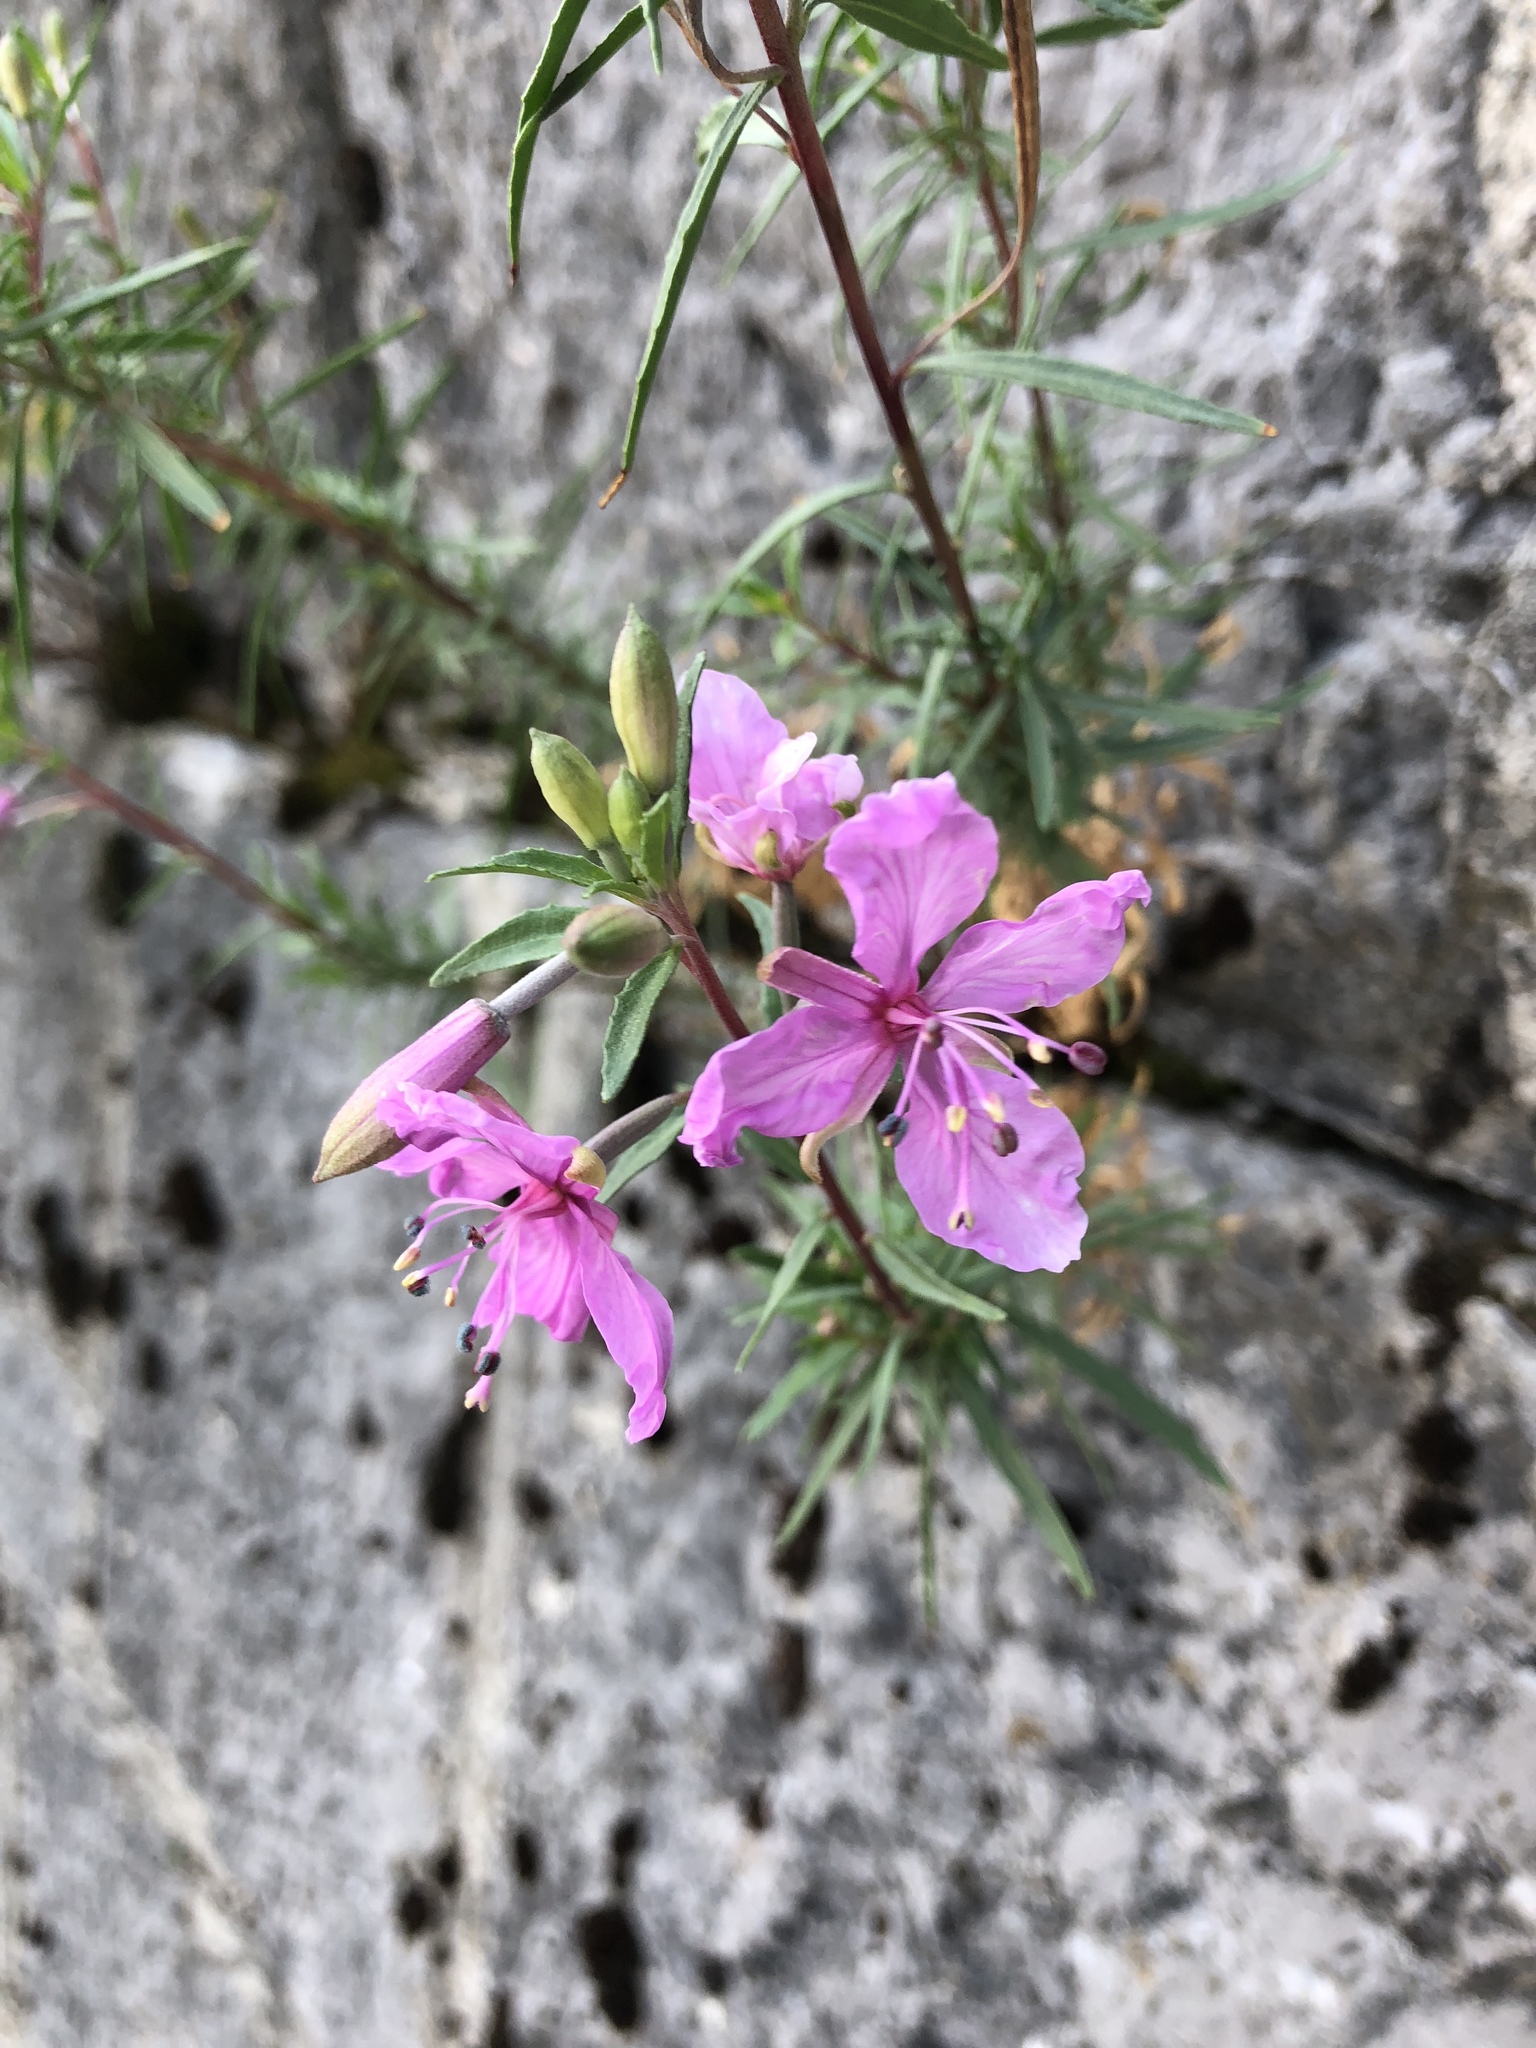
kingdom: Plantae
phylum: Tracheophyta
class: Magnoliopsida
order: Myrtales
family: Onagraceae
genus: Chamaenerion
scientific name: Chamaenerion angustifolium
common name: Fireweed
